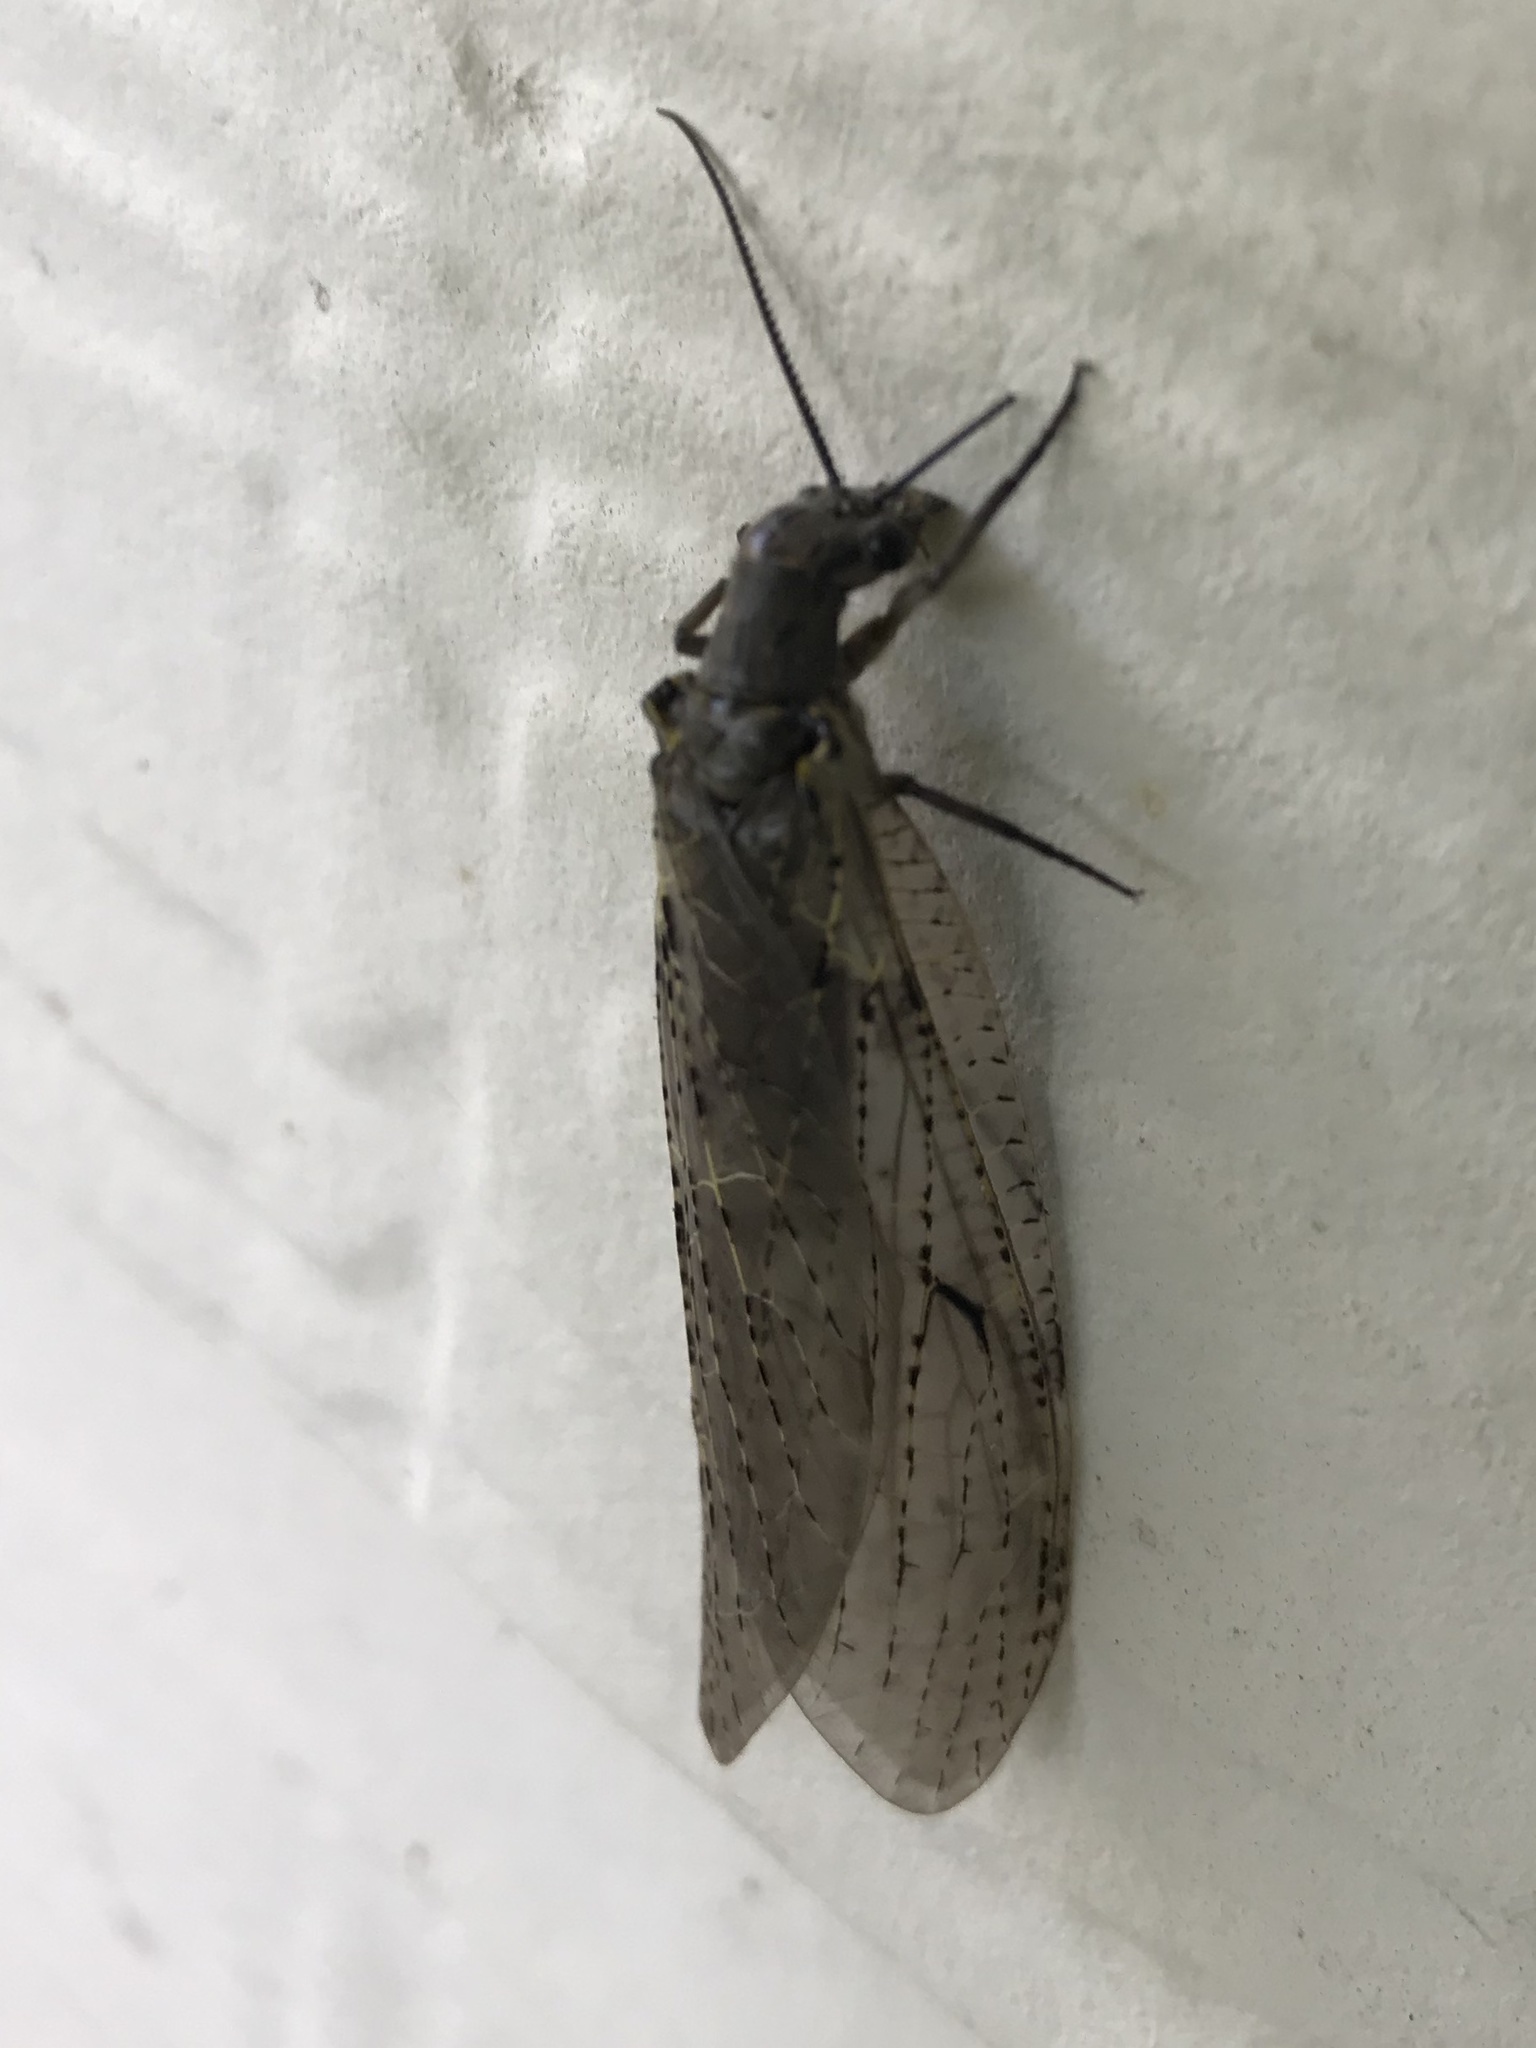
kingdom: Animalia
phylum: Arthropoda
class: Insecta
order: Megaloptera
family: Corydalidae
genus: Chauliodes
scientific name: Chauliodes rastricornis
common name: Spring fishfly
